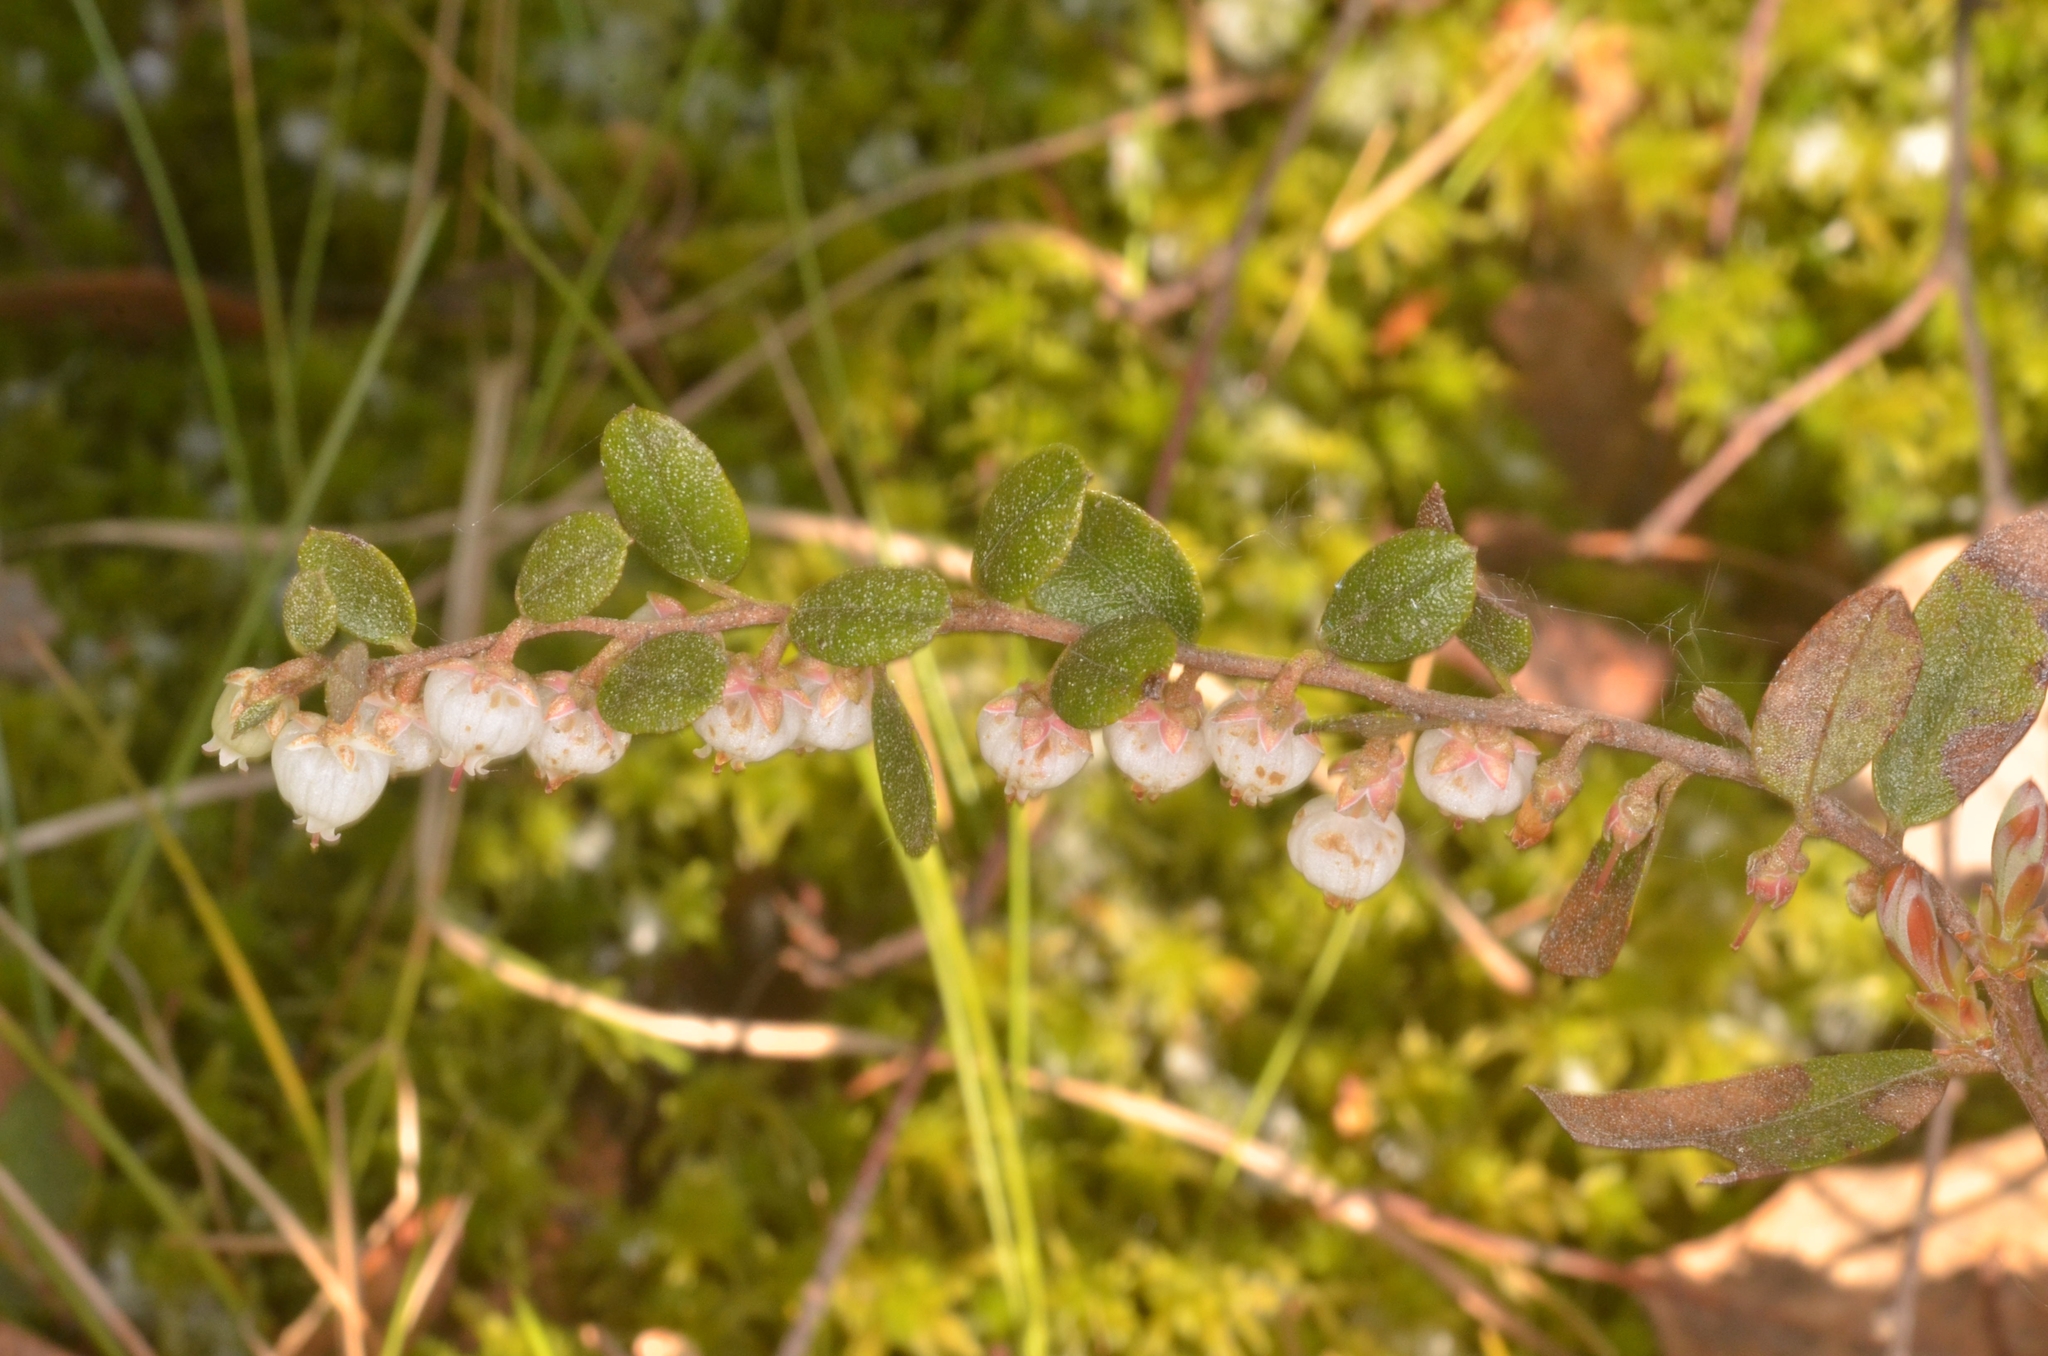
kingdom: Plantae
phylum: Tracheophyta
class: Magnoliopsida
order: Ericales
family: Ericaceae
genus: Chamaedaphne
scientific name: Chamaedaphne calyculata
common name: Leatherleaf
